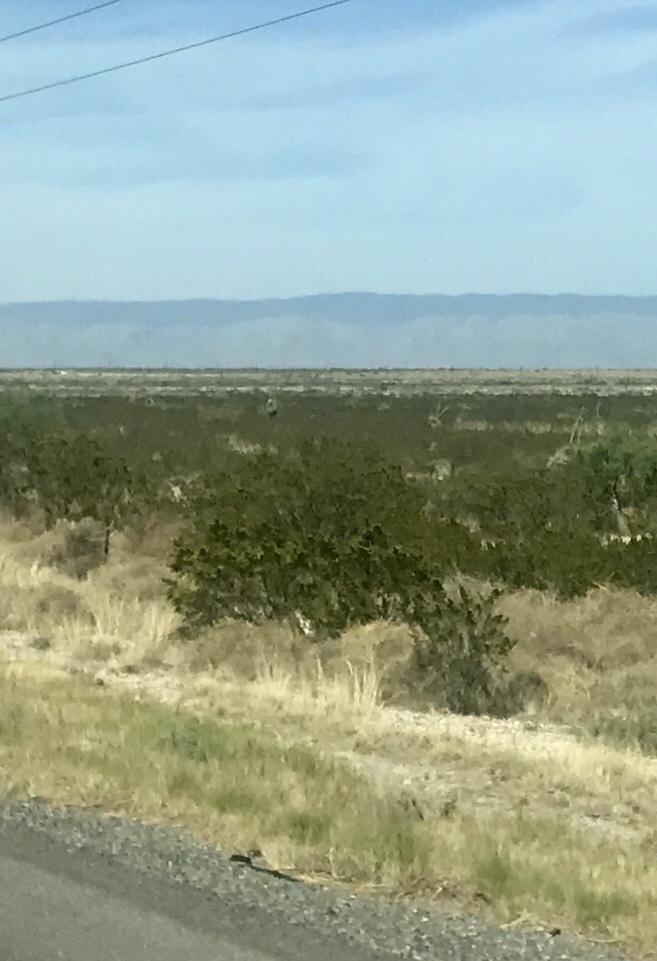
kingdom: Plantae
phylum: Tracheophyta
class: Magnoliopsida
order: Zygophyllales
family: Zygophyllaceae
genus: Larrea
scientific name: Larrea tridentata
